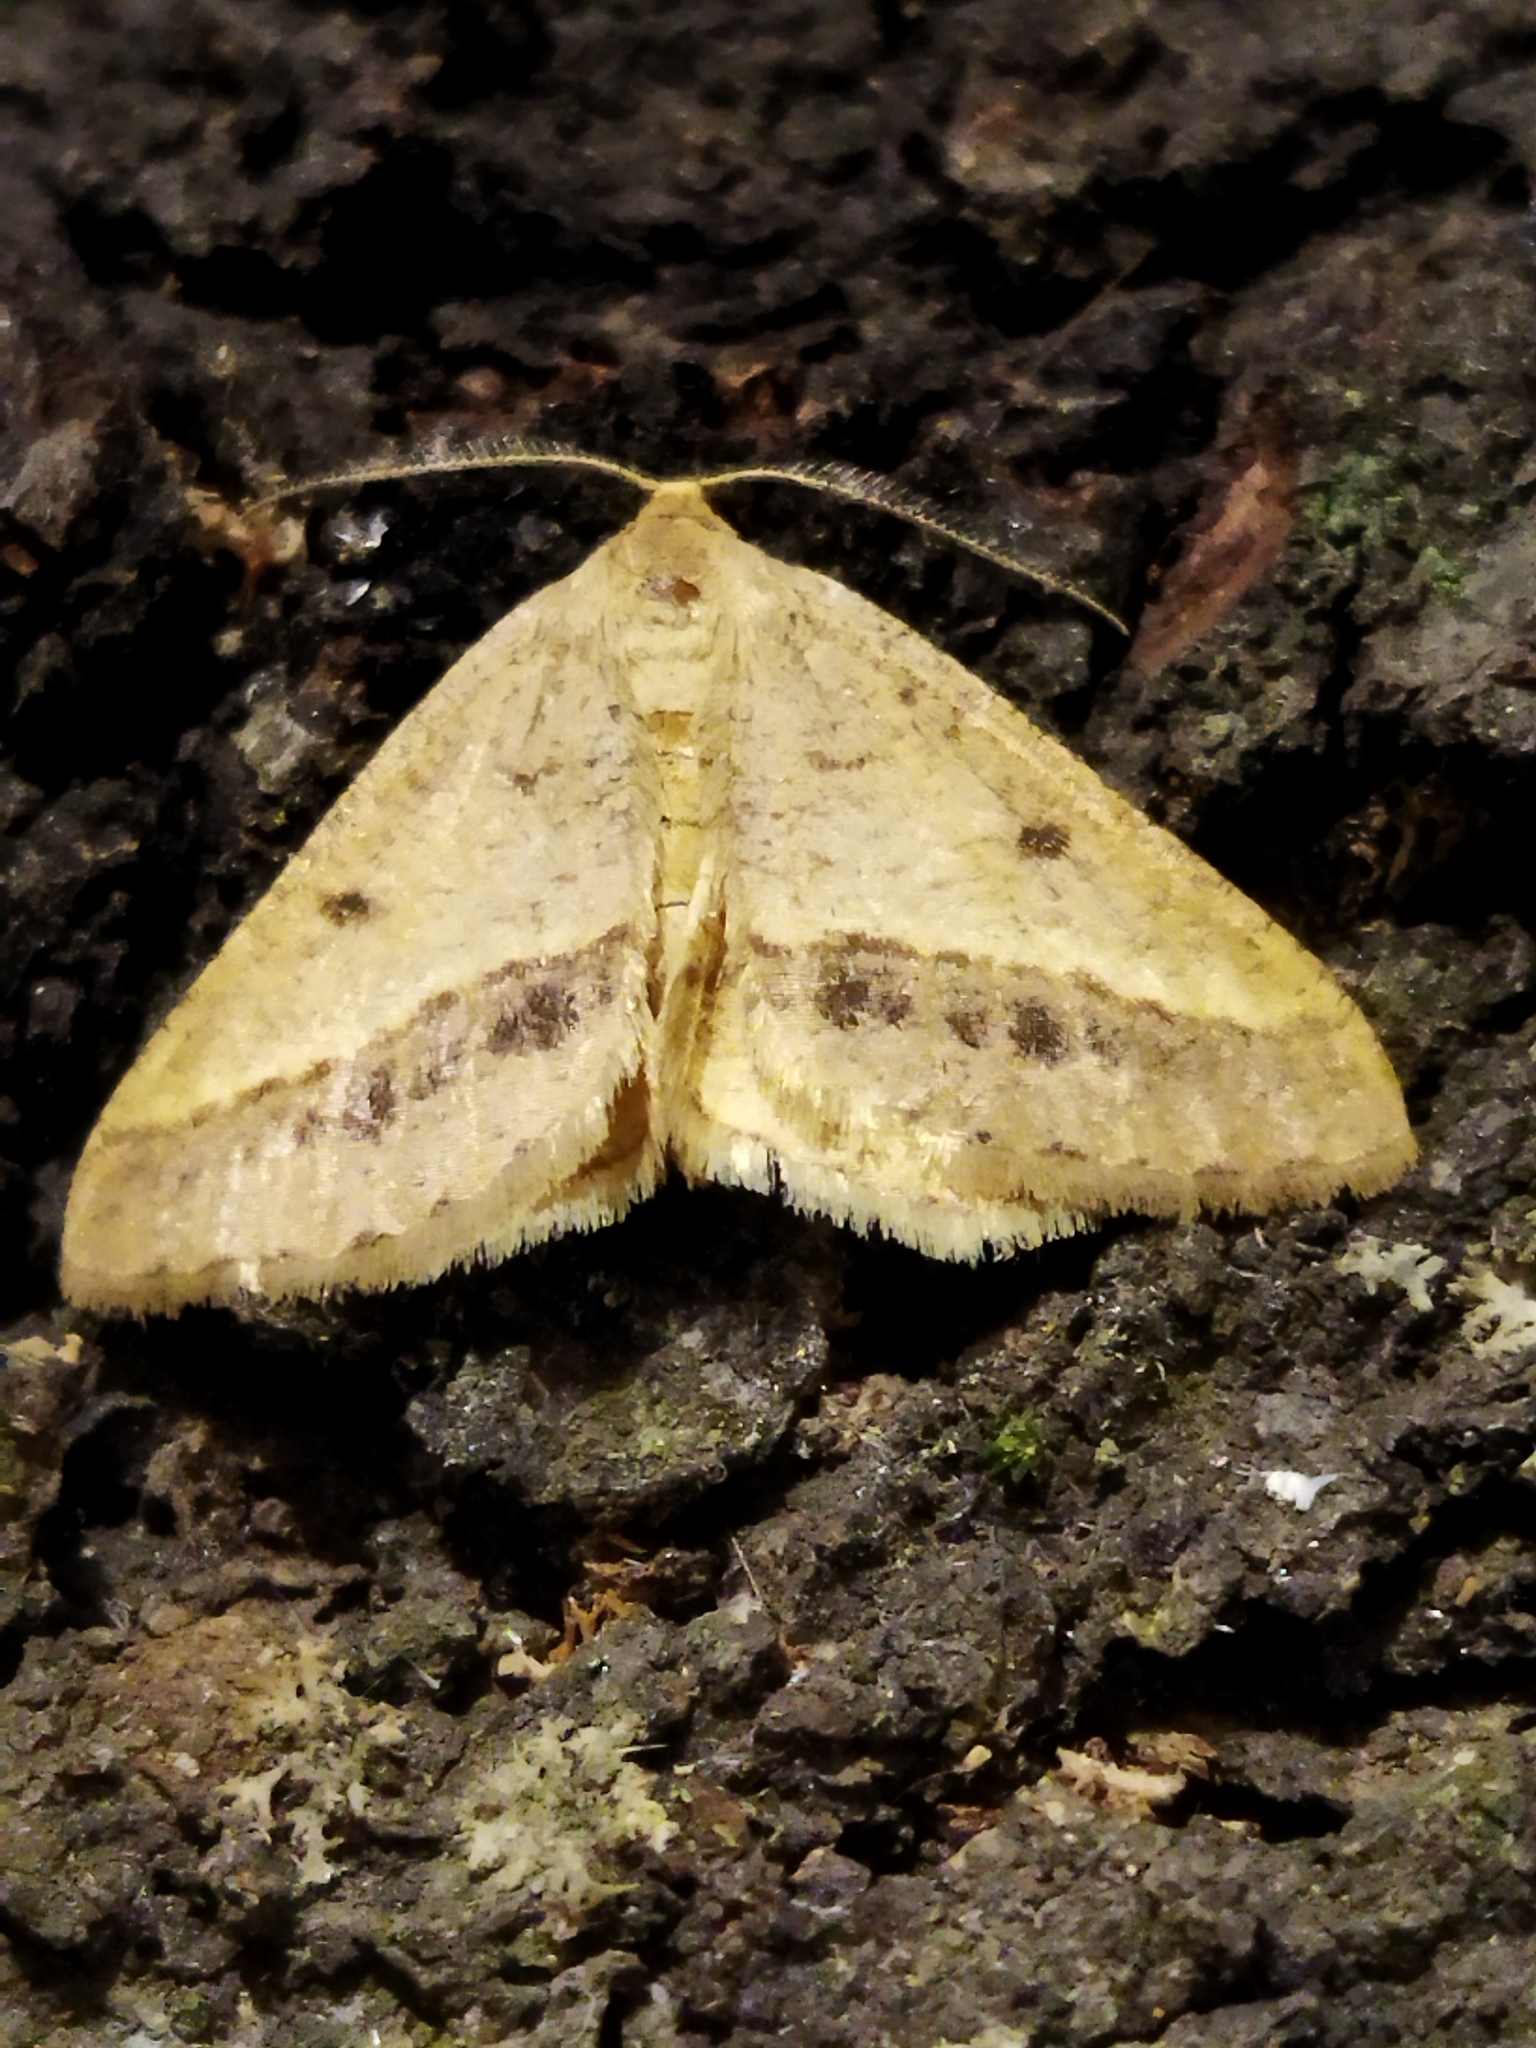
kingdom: Animalia
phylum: Arthropoda
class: Insecta
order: Lepidoptera
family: Geometridae
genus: Tephrina
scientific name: Tephrina arenacearia
